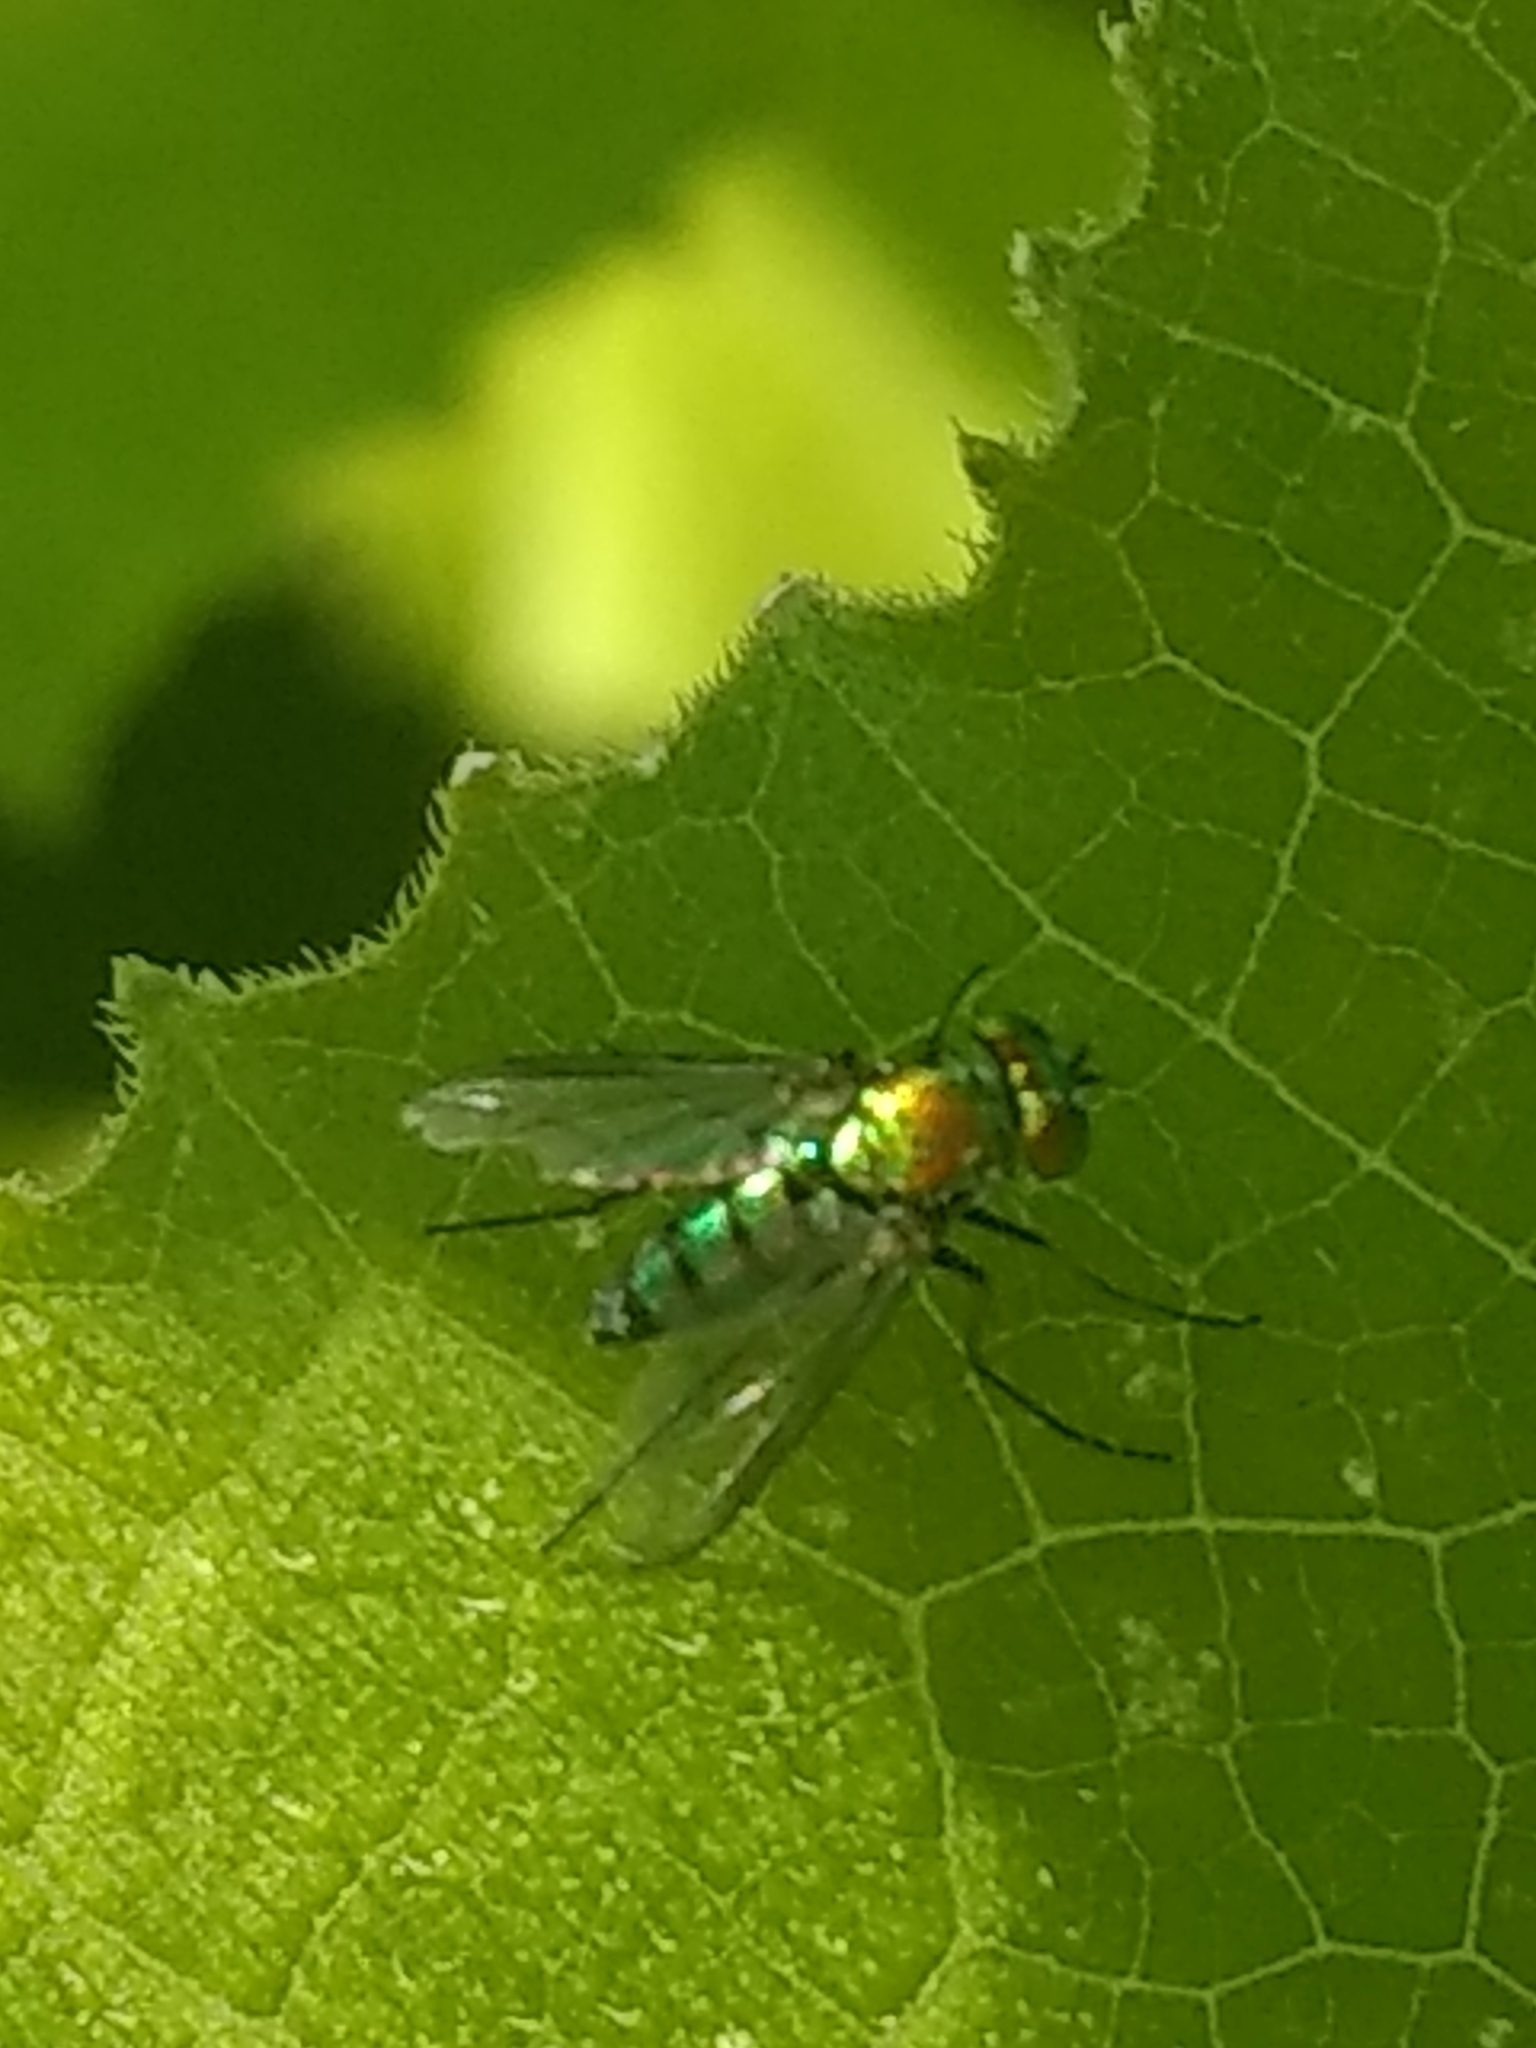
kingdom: Animalia
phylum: Arthropoda
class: Insecta
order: Diptera
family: Dolichopodidae
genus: Condylostylus
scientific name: Condylostylus longicornis
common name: Long-legged fly
